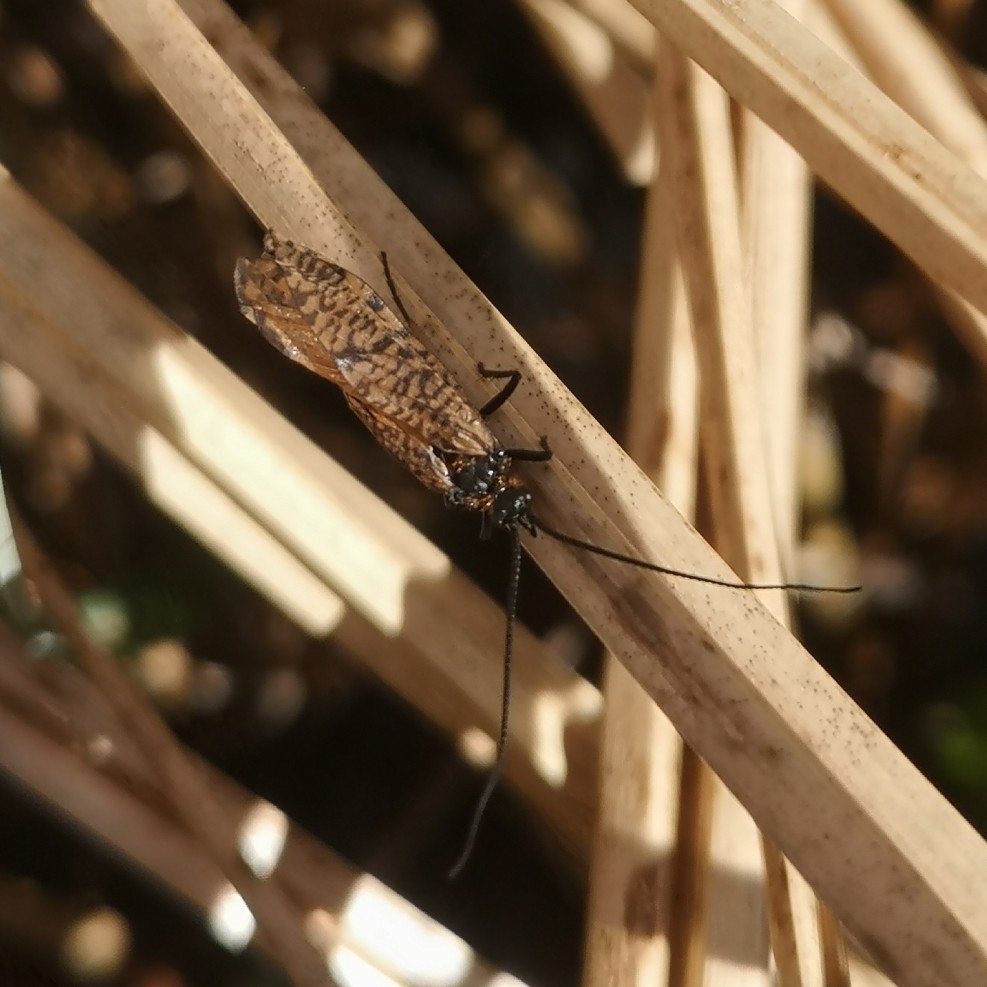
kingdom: Animalia
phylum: Arthropoda
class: Insecta
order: Trichoptera
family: Phryganeidae
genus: Oligostomis
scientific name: Oligostomis reticulata
